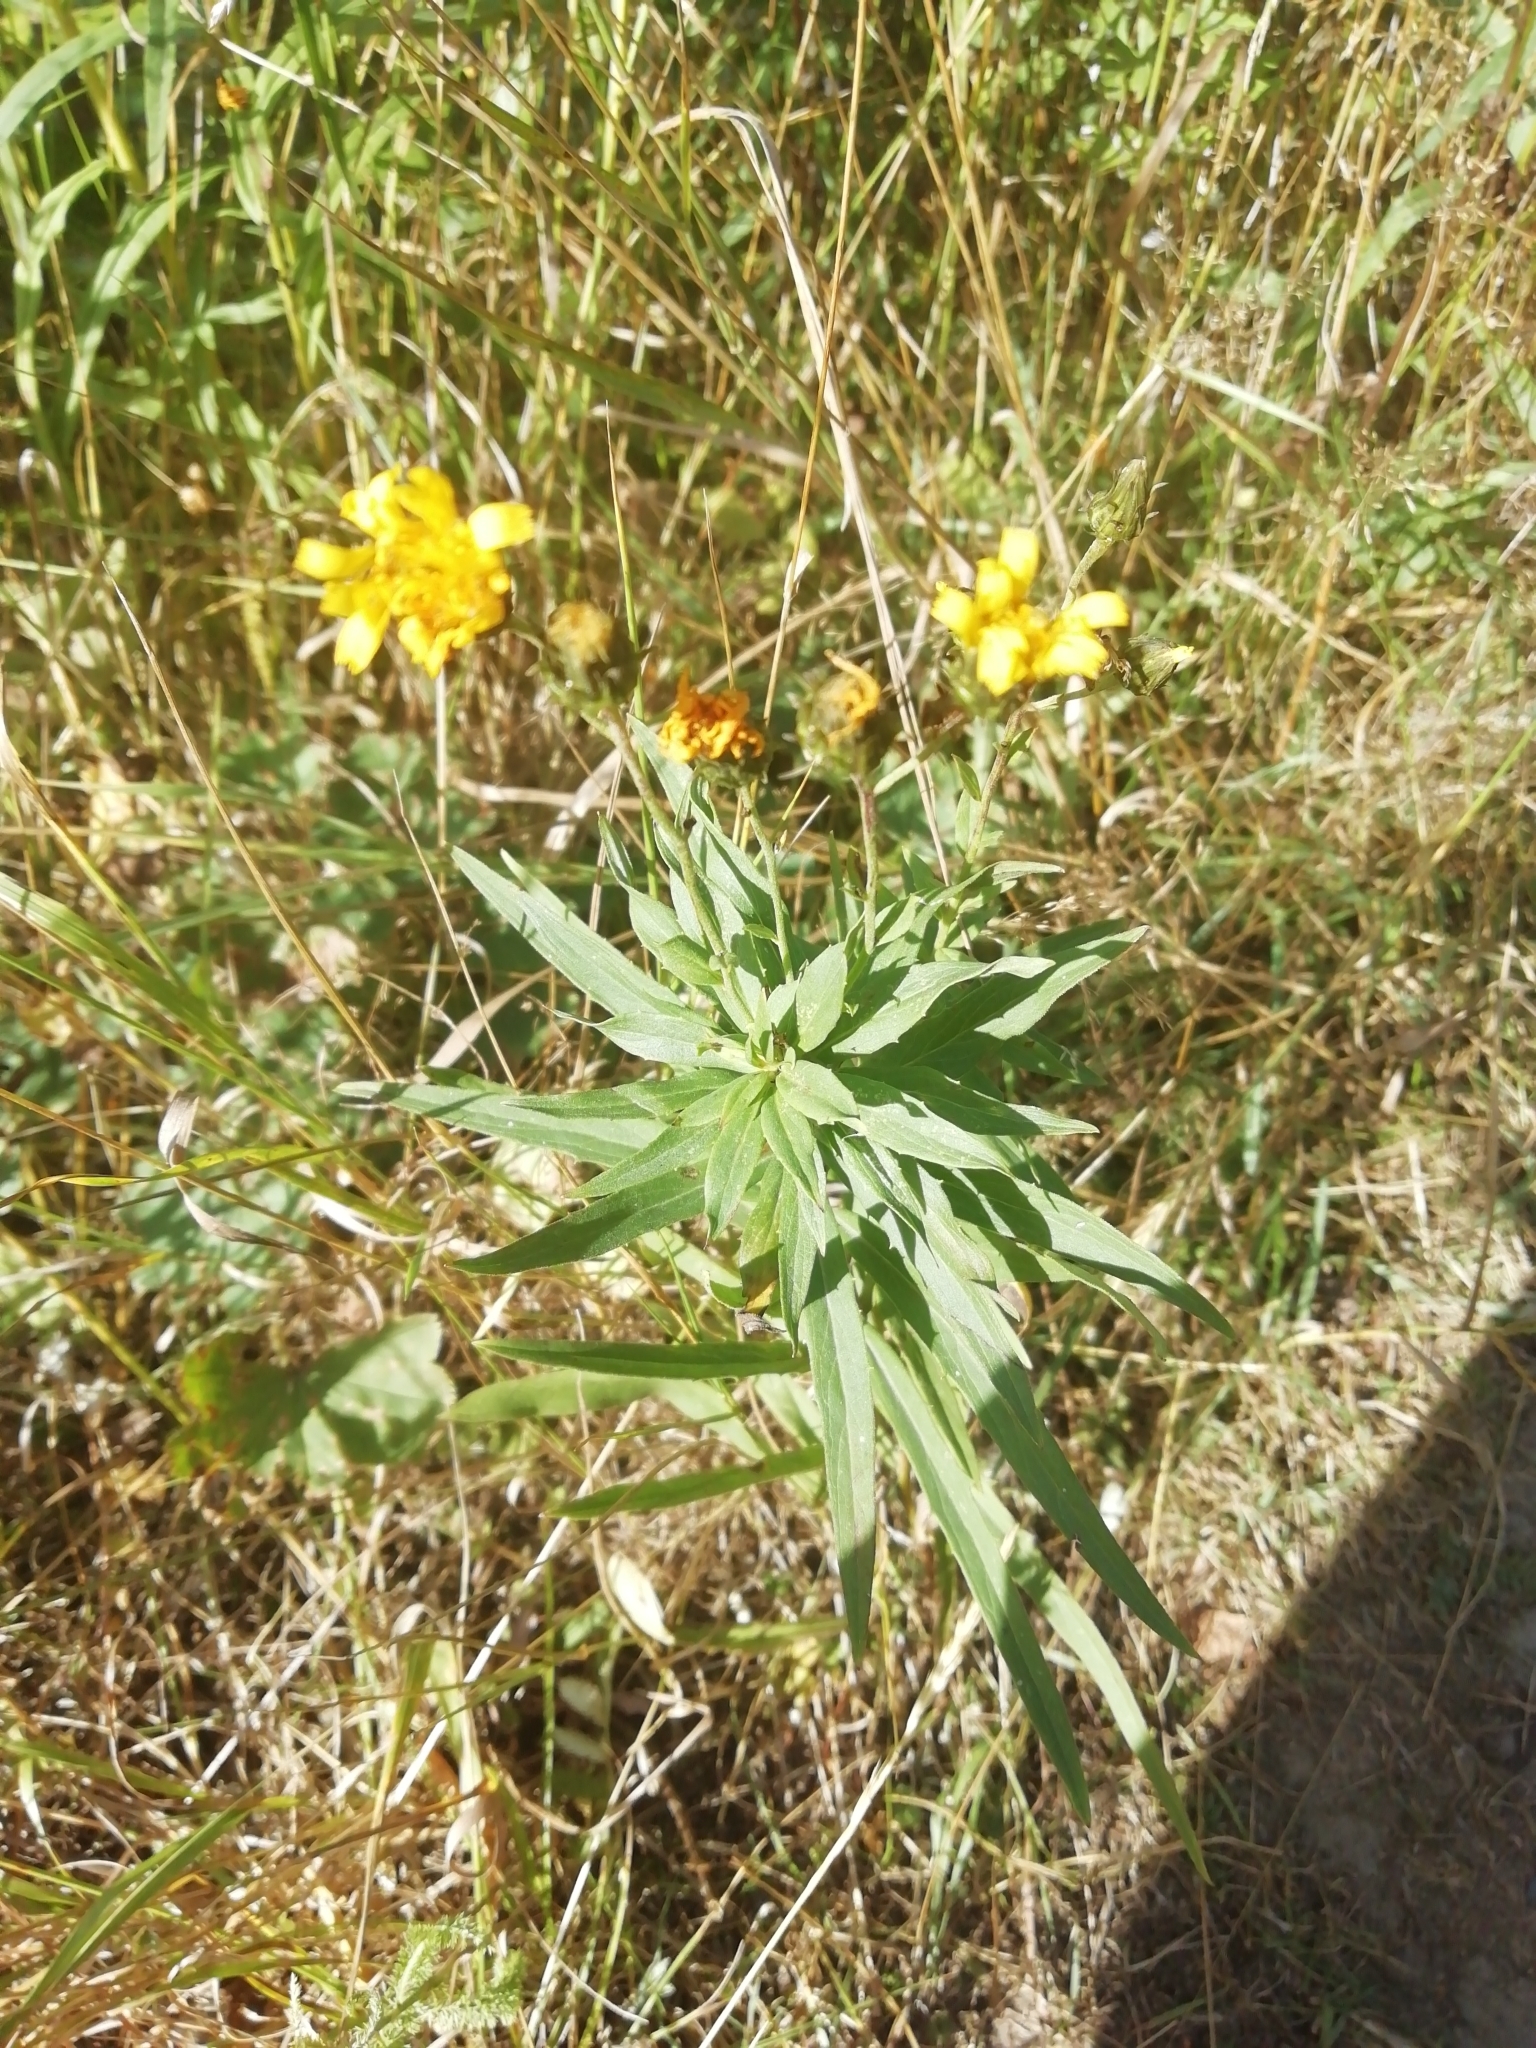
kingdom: Plantae
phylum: Tracheophyta
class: Magnoliopsida
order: Asterales
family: Asteraceae
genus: Hieracium
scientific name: Hieracium umbellatum
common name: Northern hawkweed
